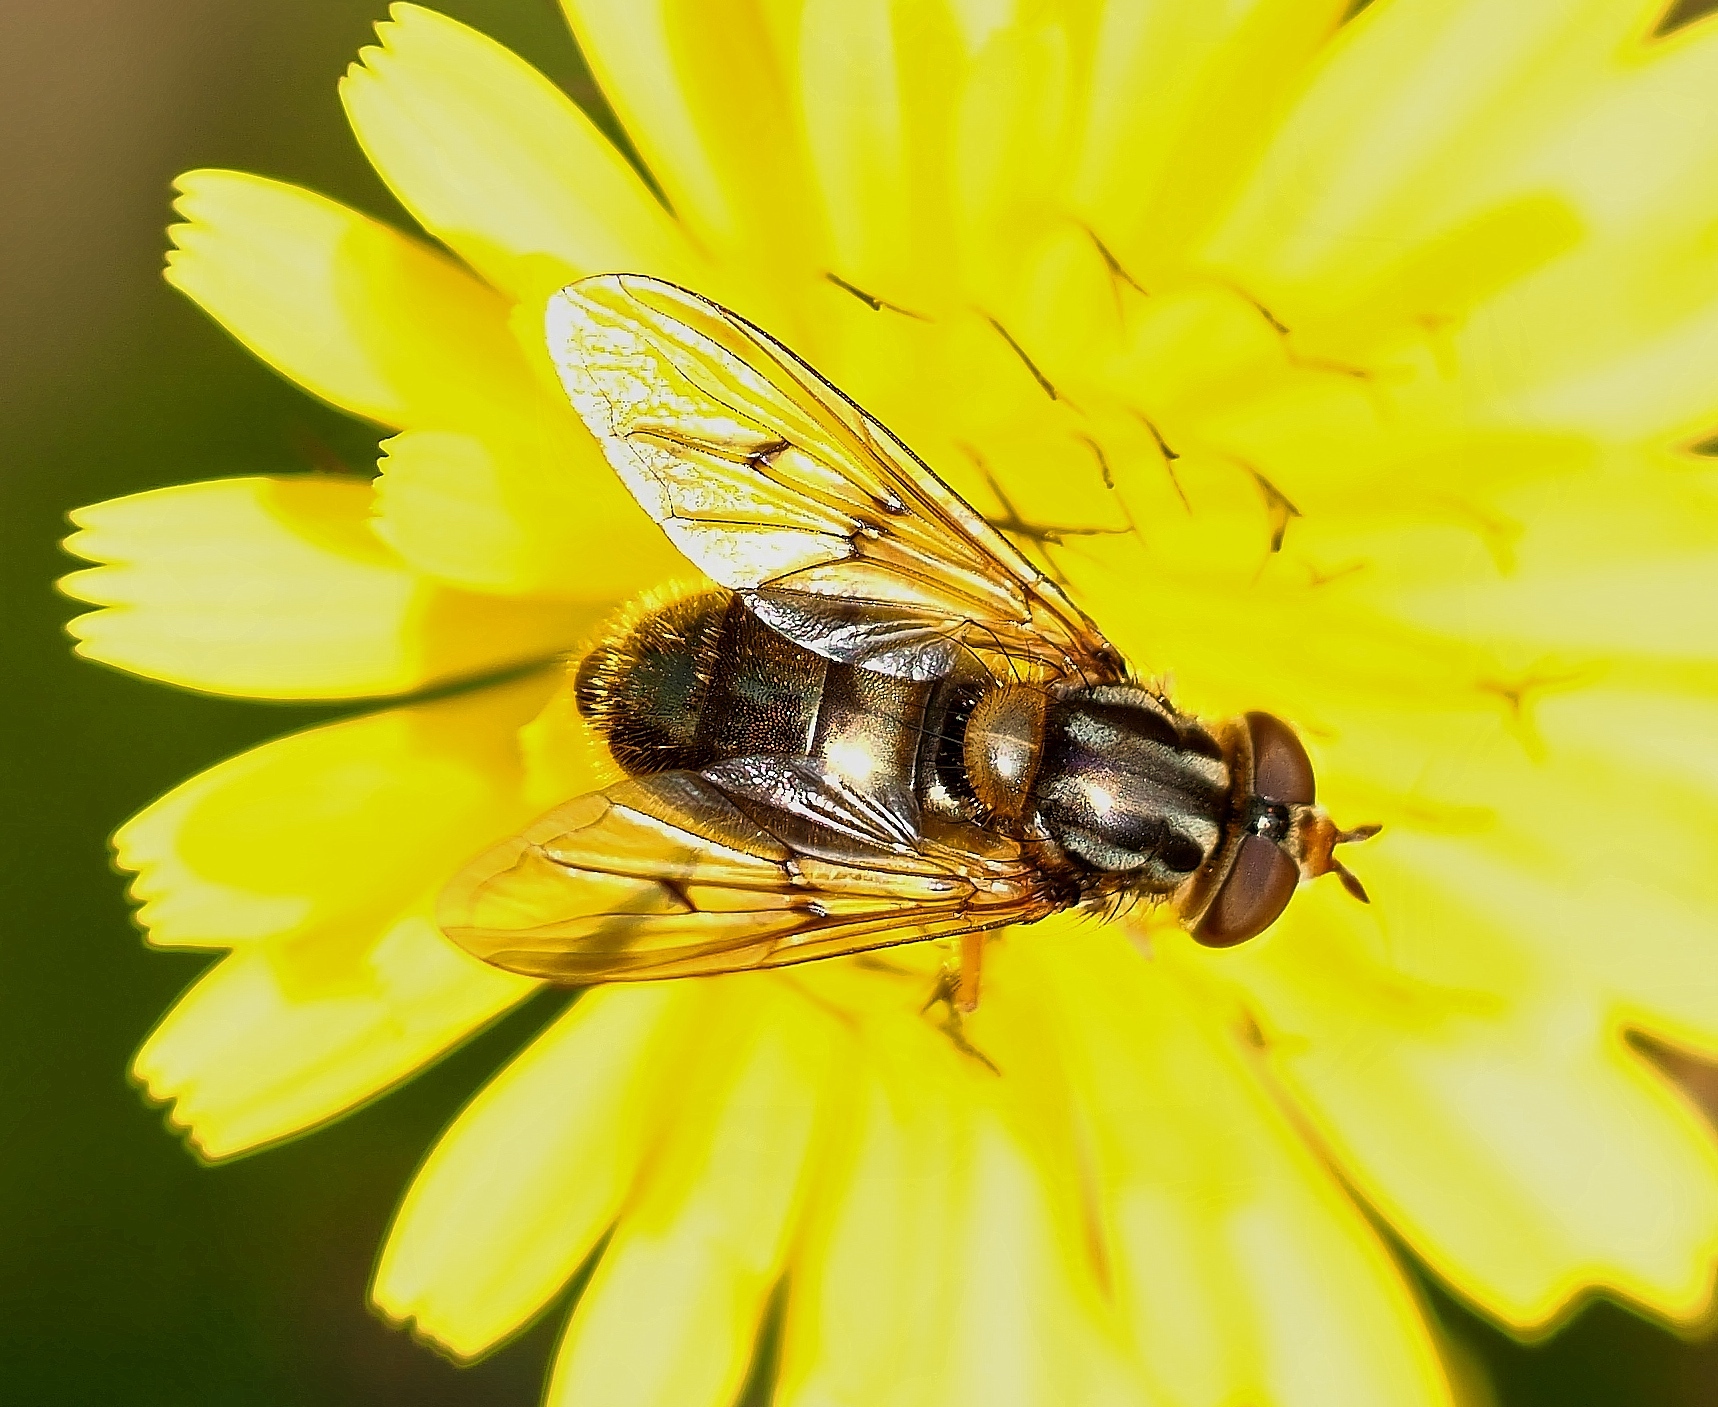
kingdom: Animalia
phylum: Arthropoda
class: Insecta
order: Diptera
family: Syrphidae
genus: Ferdinandea
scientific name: Ferdinandea cuprea
